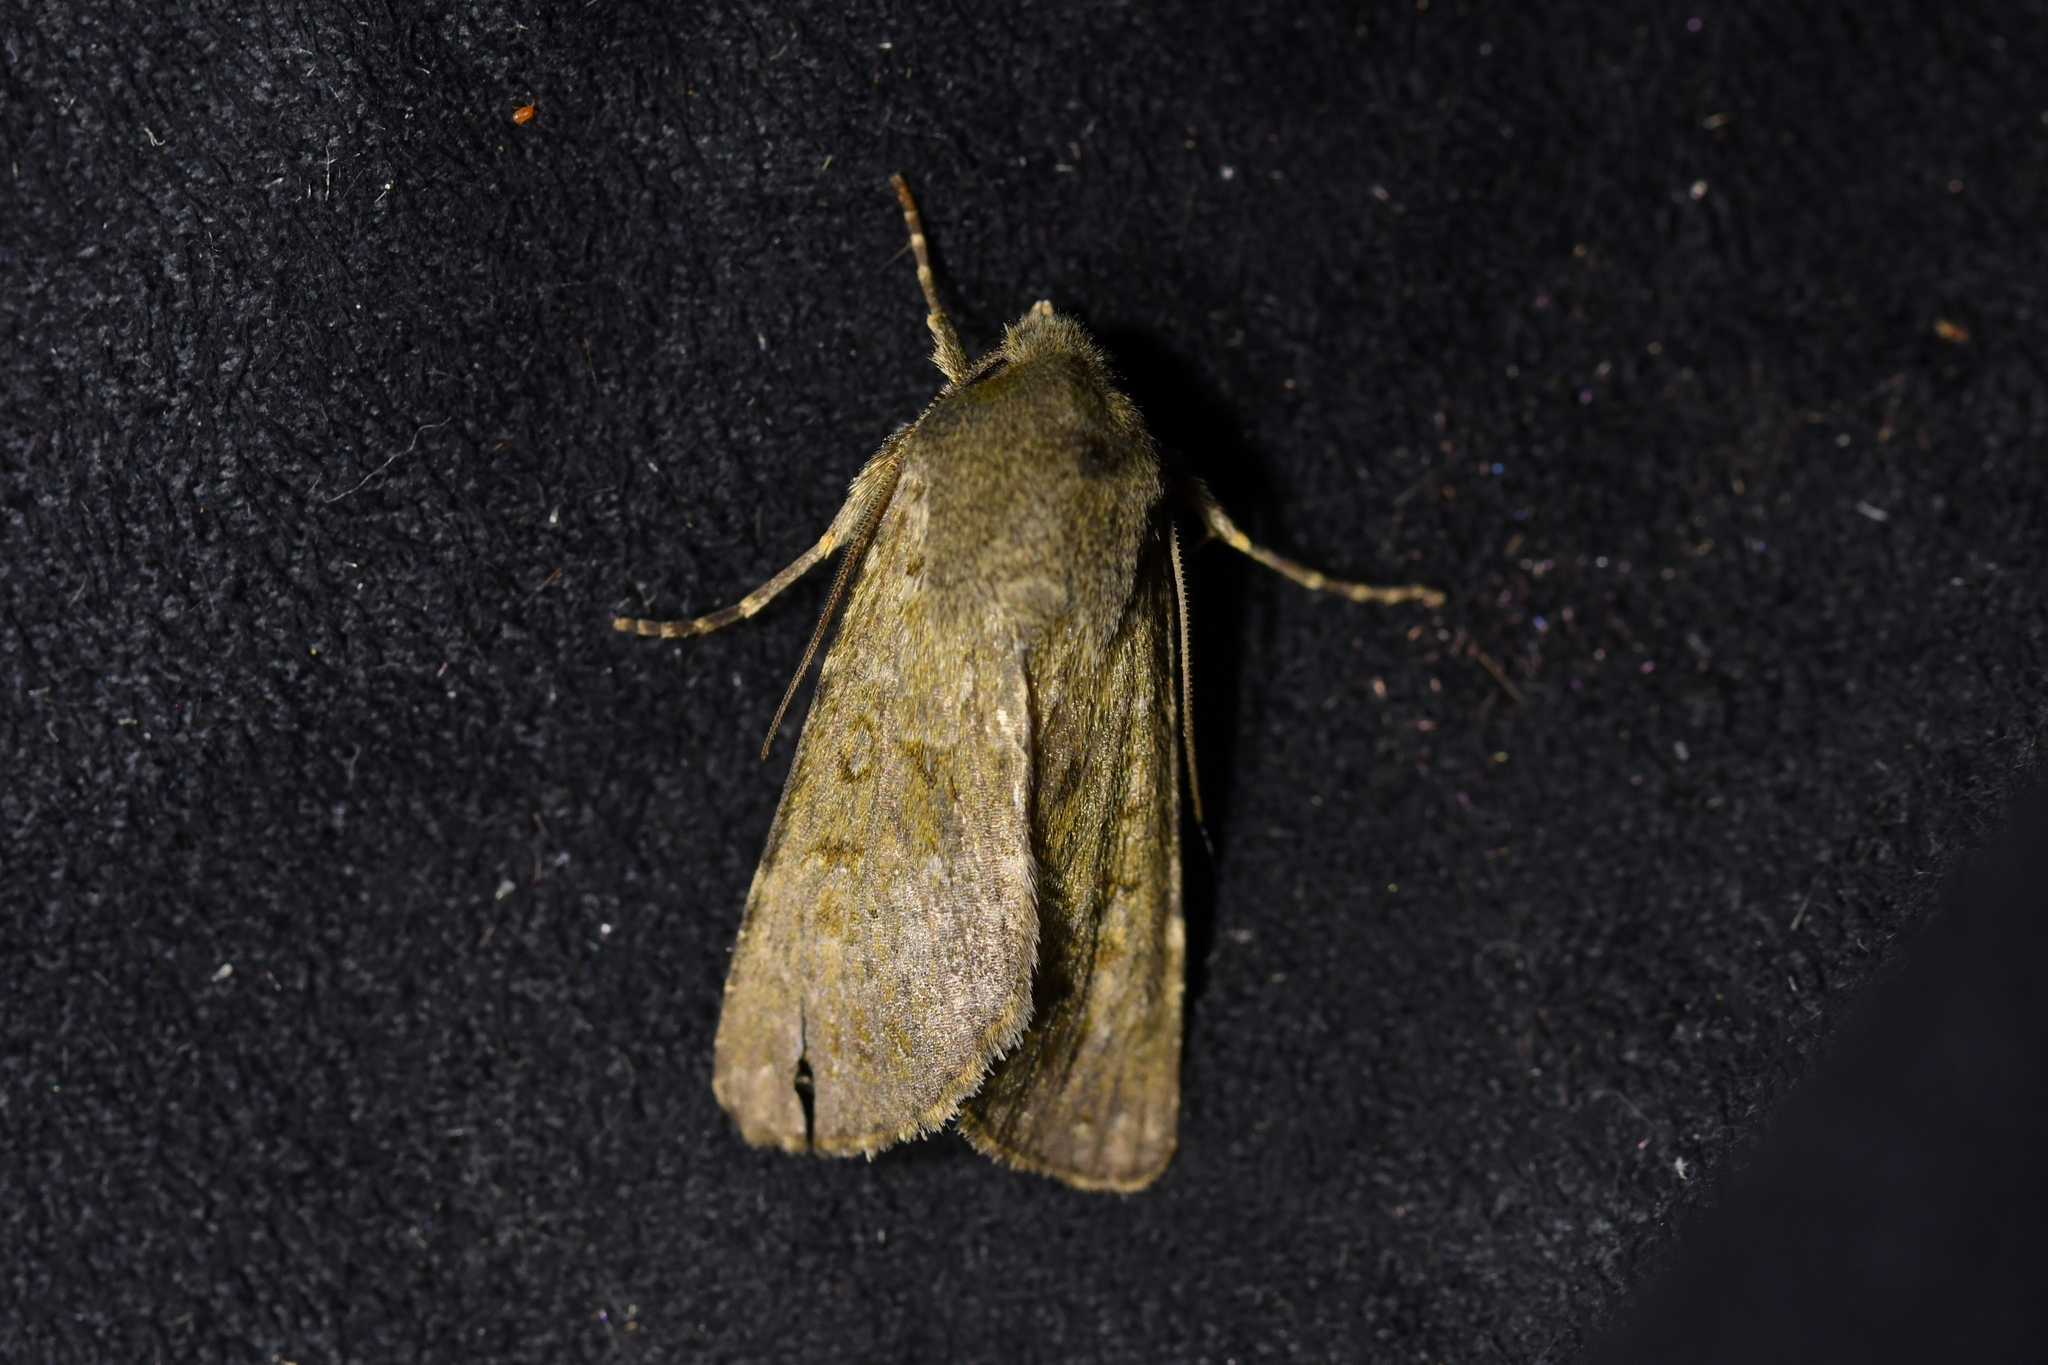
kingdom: Animalia
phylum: Arthropoda
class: Insecta
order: Lepidoptera
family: Noctuidae
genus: Ichneutica
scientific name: Ichneutica moderata
